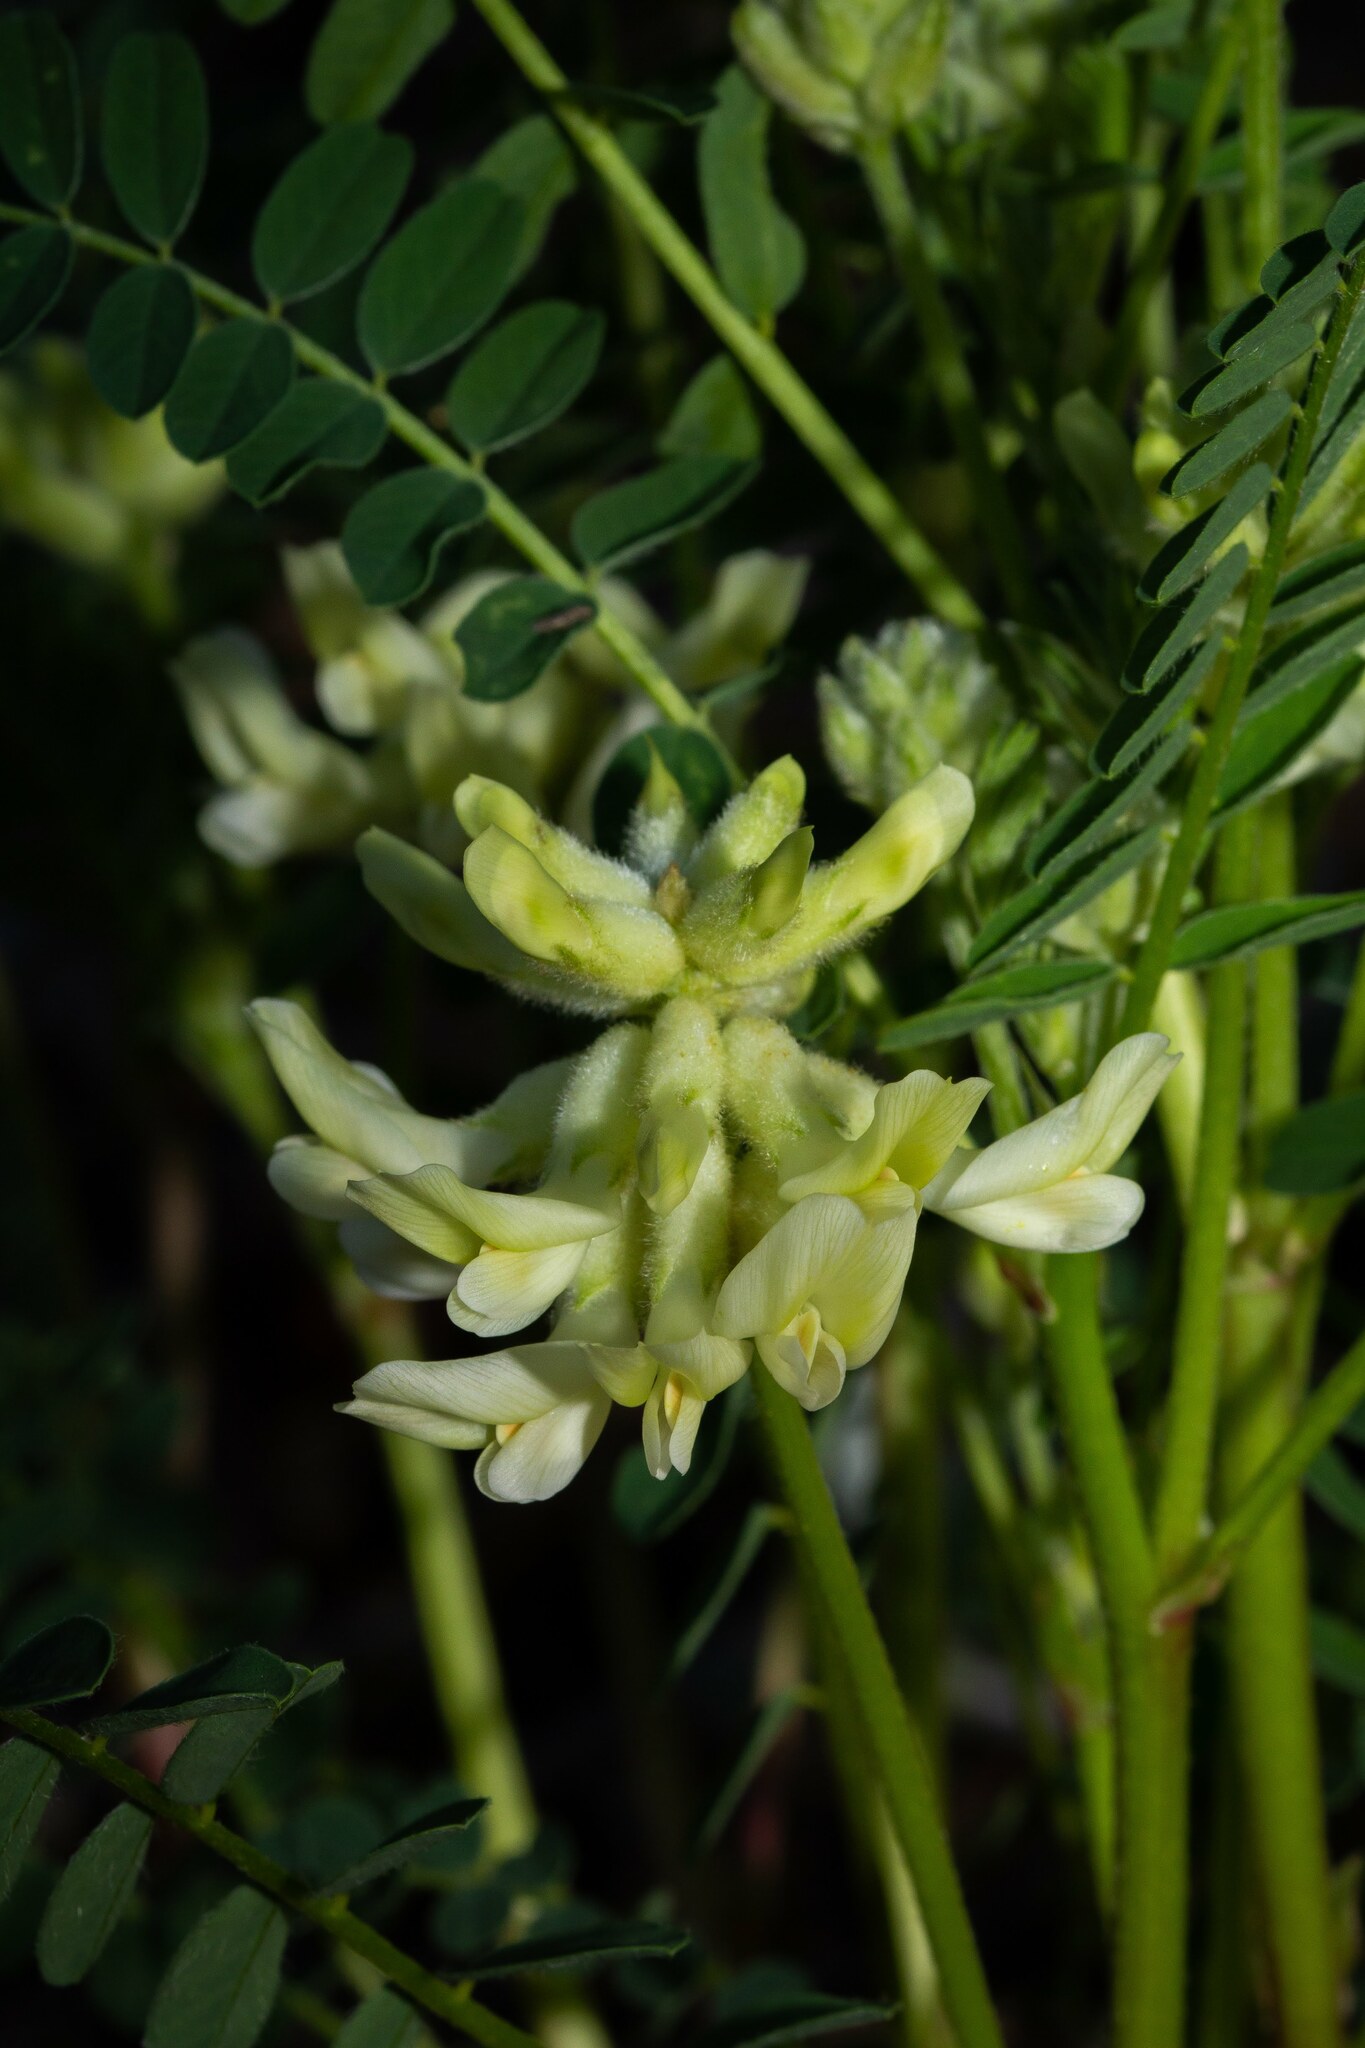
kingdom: Plantae
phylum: Tracheophyta
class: Magnoliopsida
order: Fabales
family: Fabaceae
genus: Astragalus
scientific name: Astragalus crassicarpus
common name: Ground-plum milk-vetch
